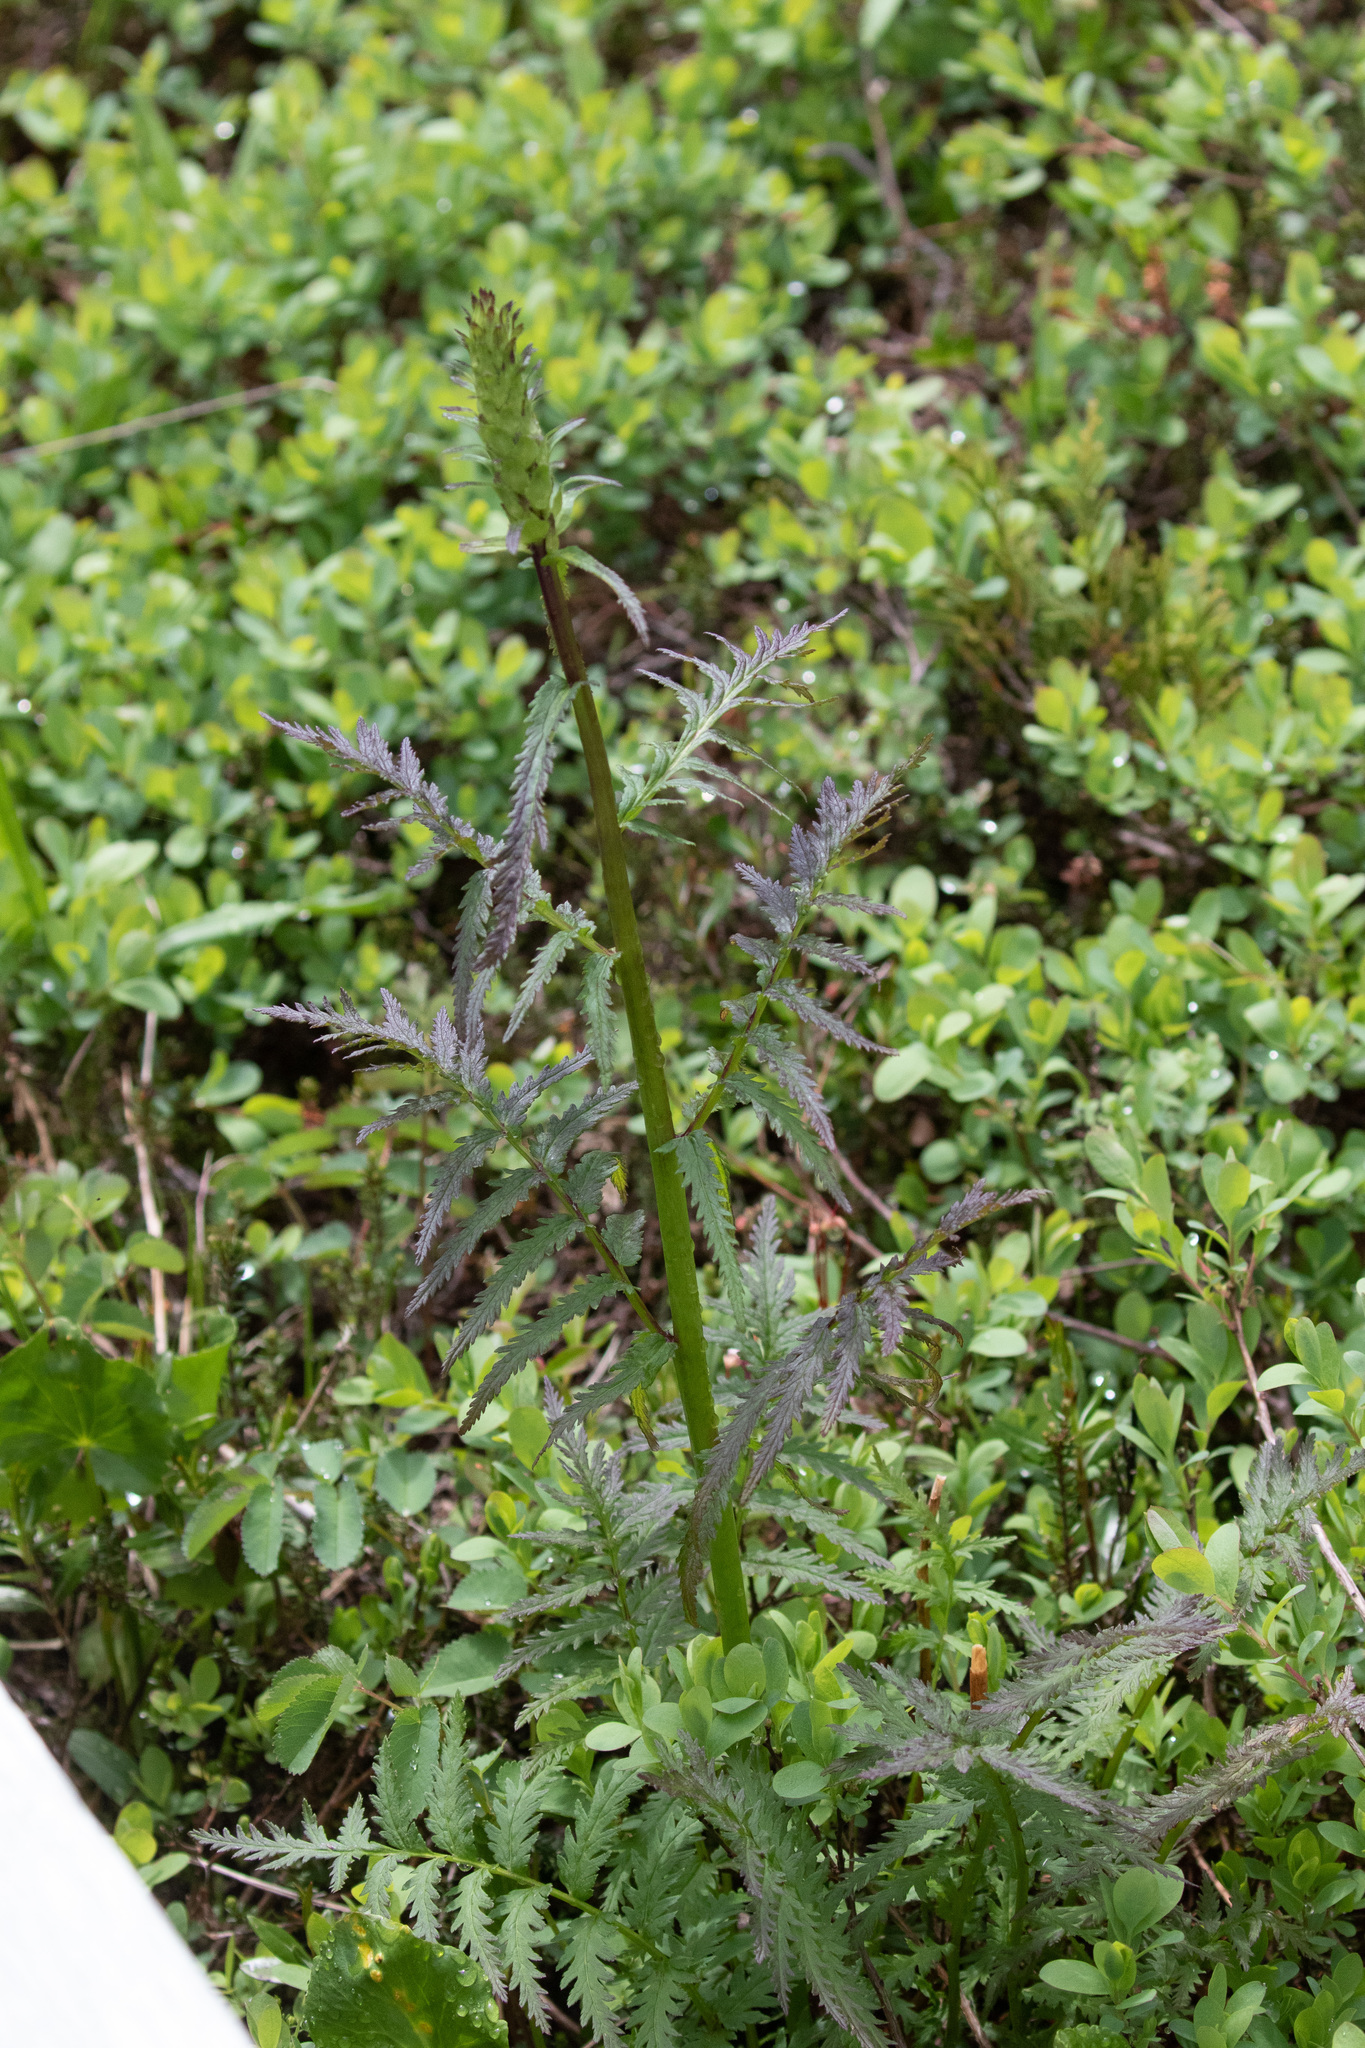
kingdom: Plantae
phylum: Tracheophyta
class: Magnoliopsida
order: Lamiales
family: Orobanchaceae
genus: Pedicularis
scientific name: Pedicularis bracteosa
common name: Bracted lousewort
